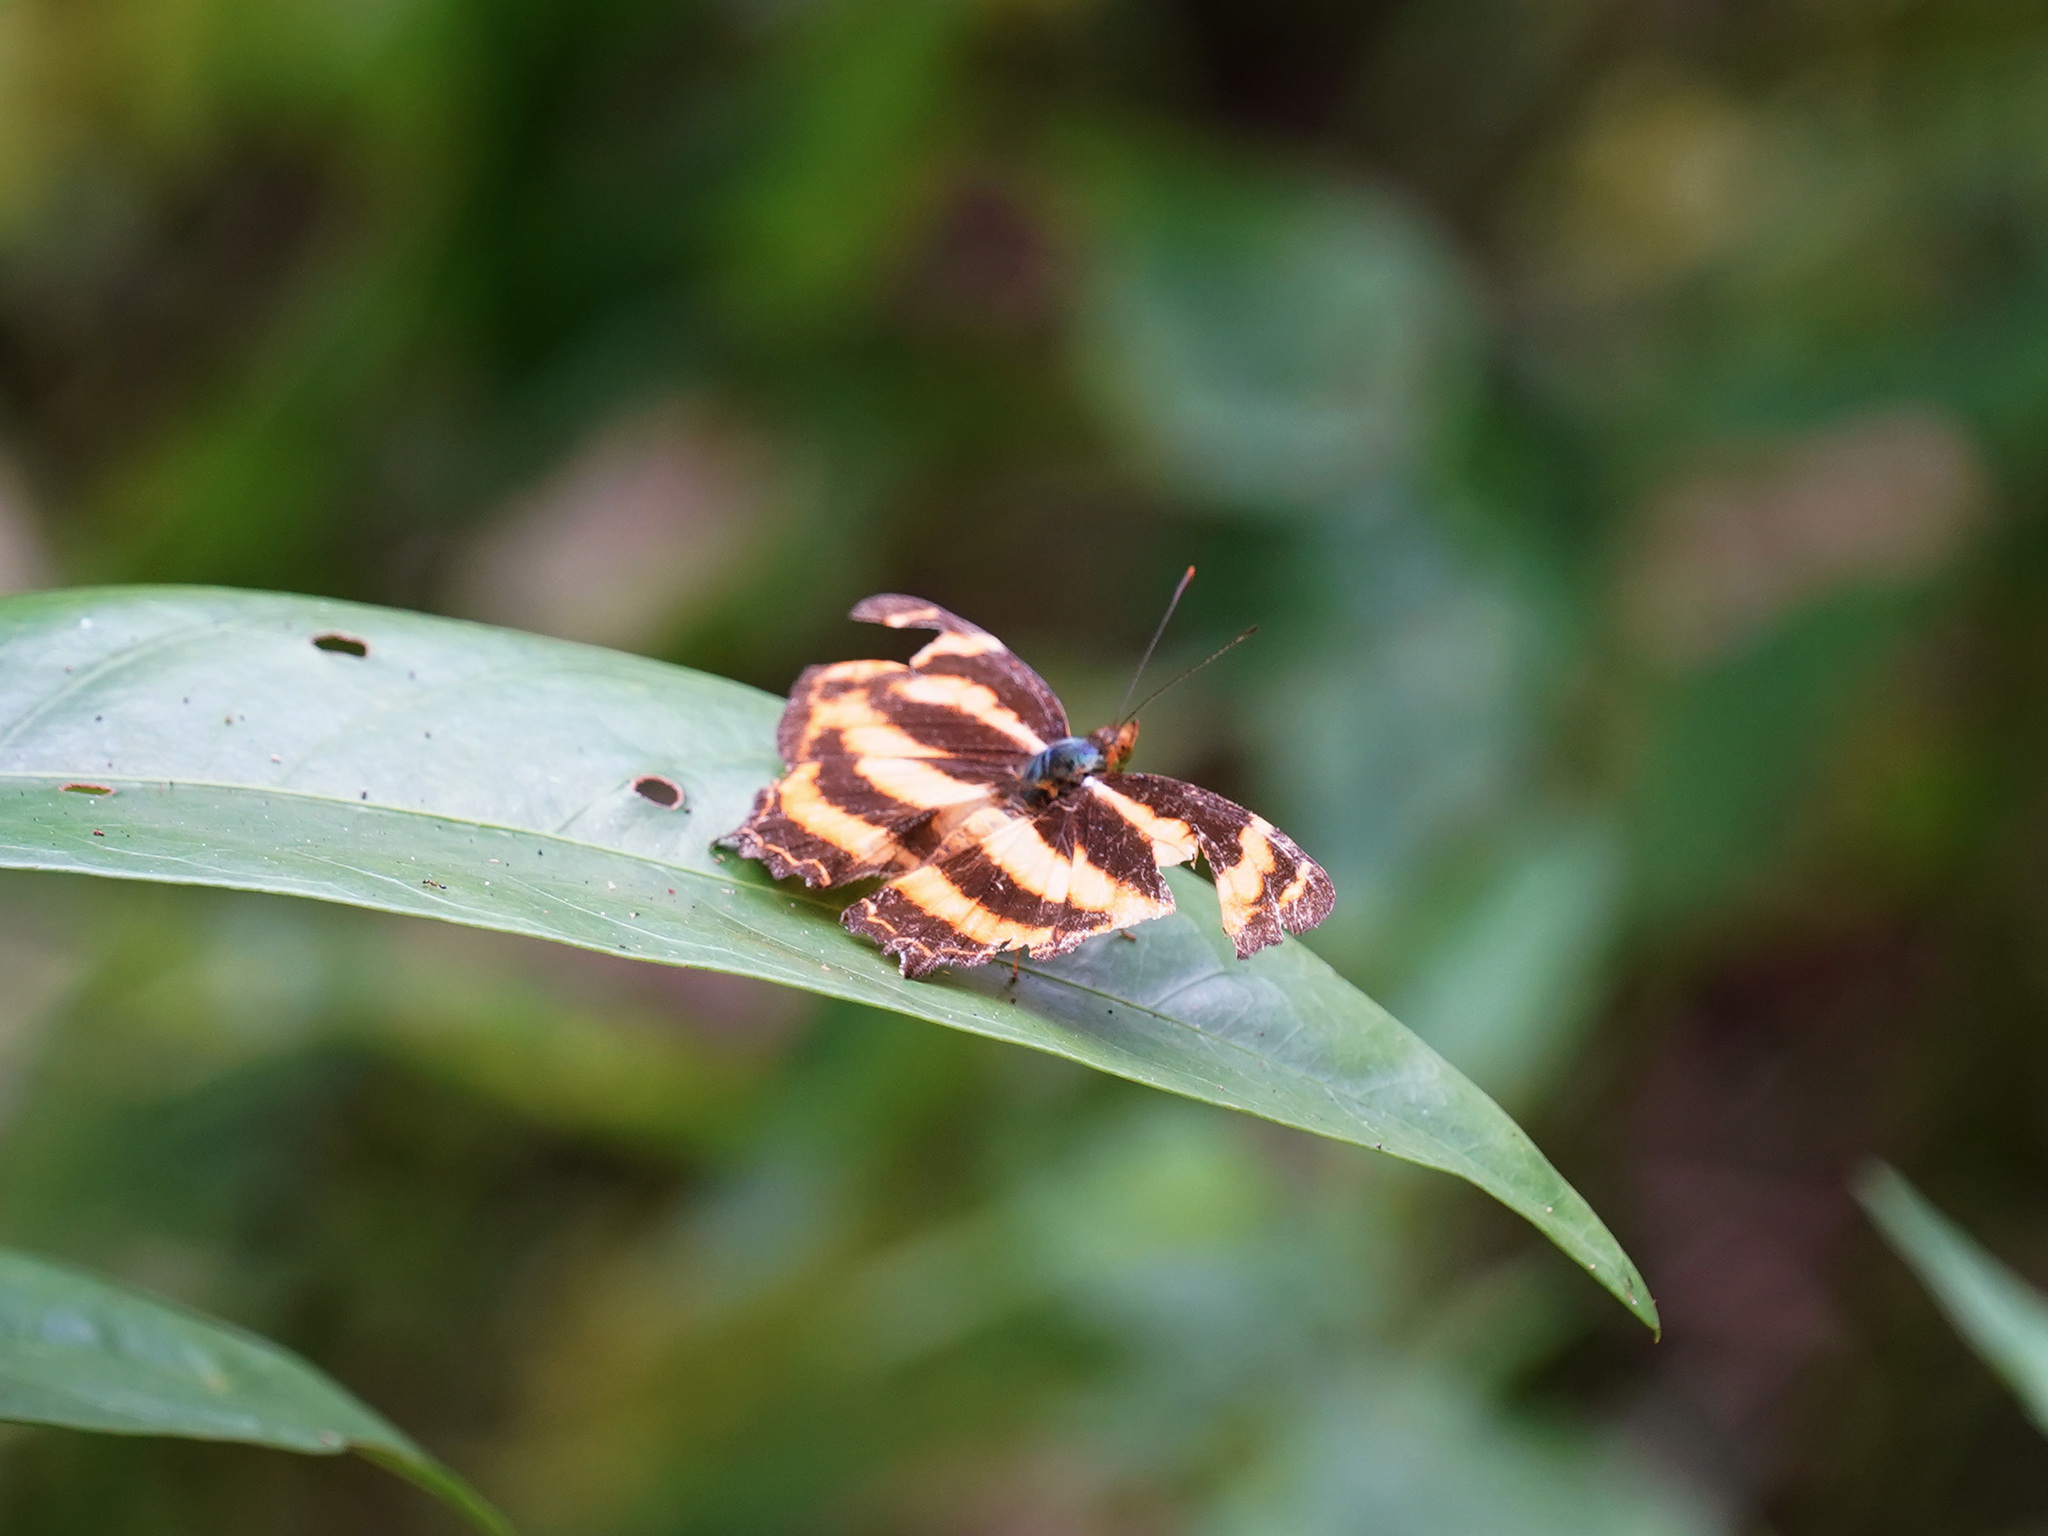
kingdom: Animalia
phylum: Arthropoda
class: Insecta
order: Lepidoptera
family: Nymphalidae
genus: Symbrenthia
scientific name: Symbrenthia hippoclus
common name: Common jester
